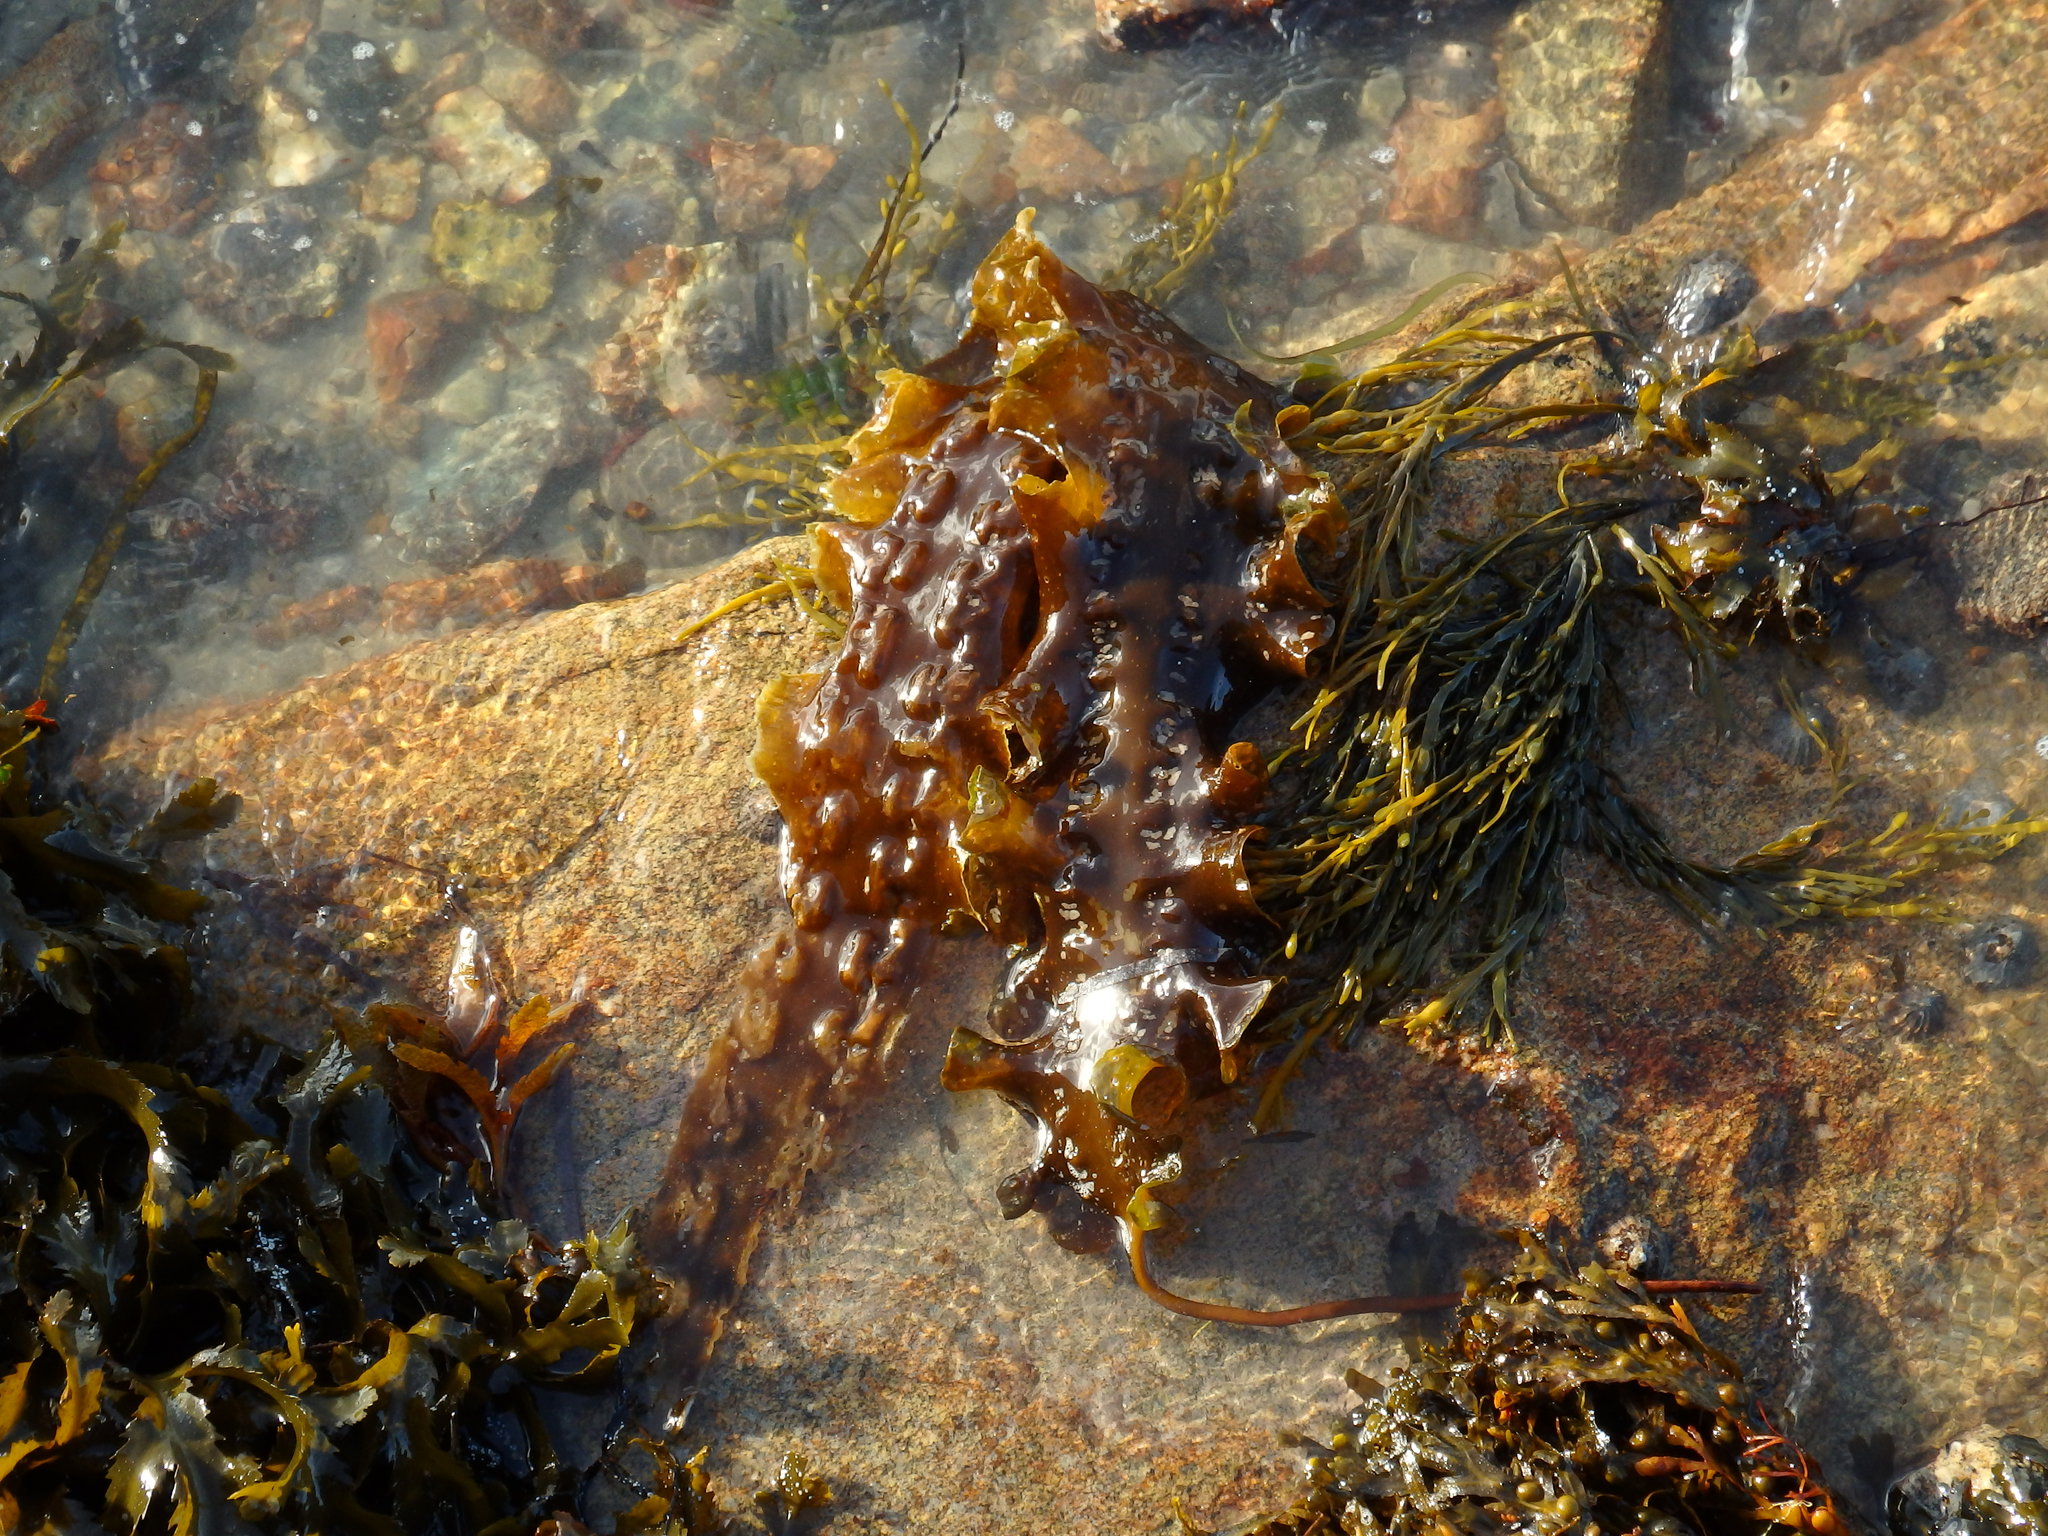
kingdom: Chromista
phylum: Ochrophyta
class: Phaeophyceae
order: Laminariales
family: Laminariaceae
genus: Saccharina
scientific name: Saccharina latissima
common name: Poor man's weather glass
